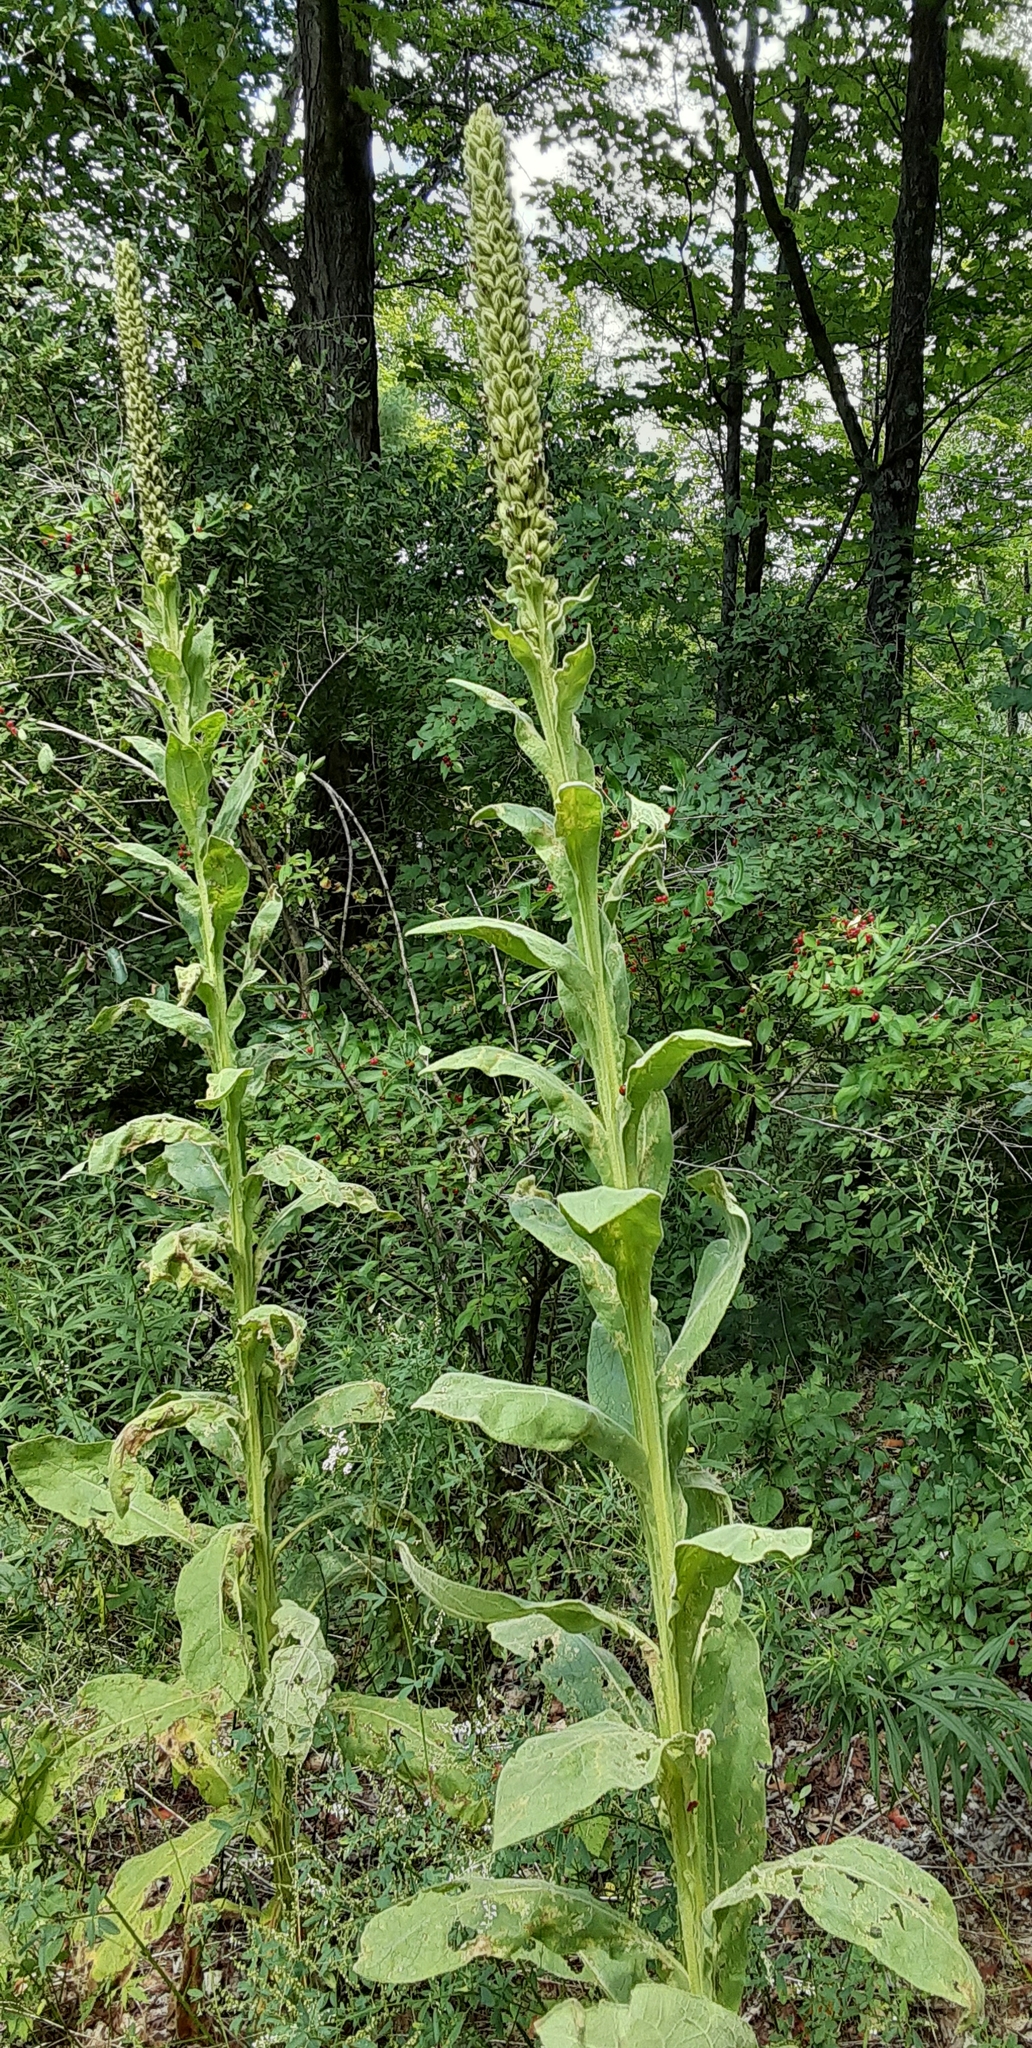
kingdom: Plantae
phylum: Tracheophyta
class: Magnoliopsida
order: Lamiales
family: Scrophulariaceae
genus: Verbascum
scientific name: Verbascum thapsus
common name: Common mullein
